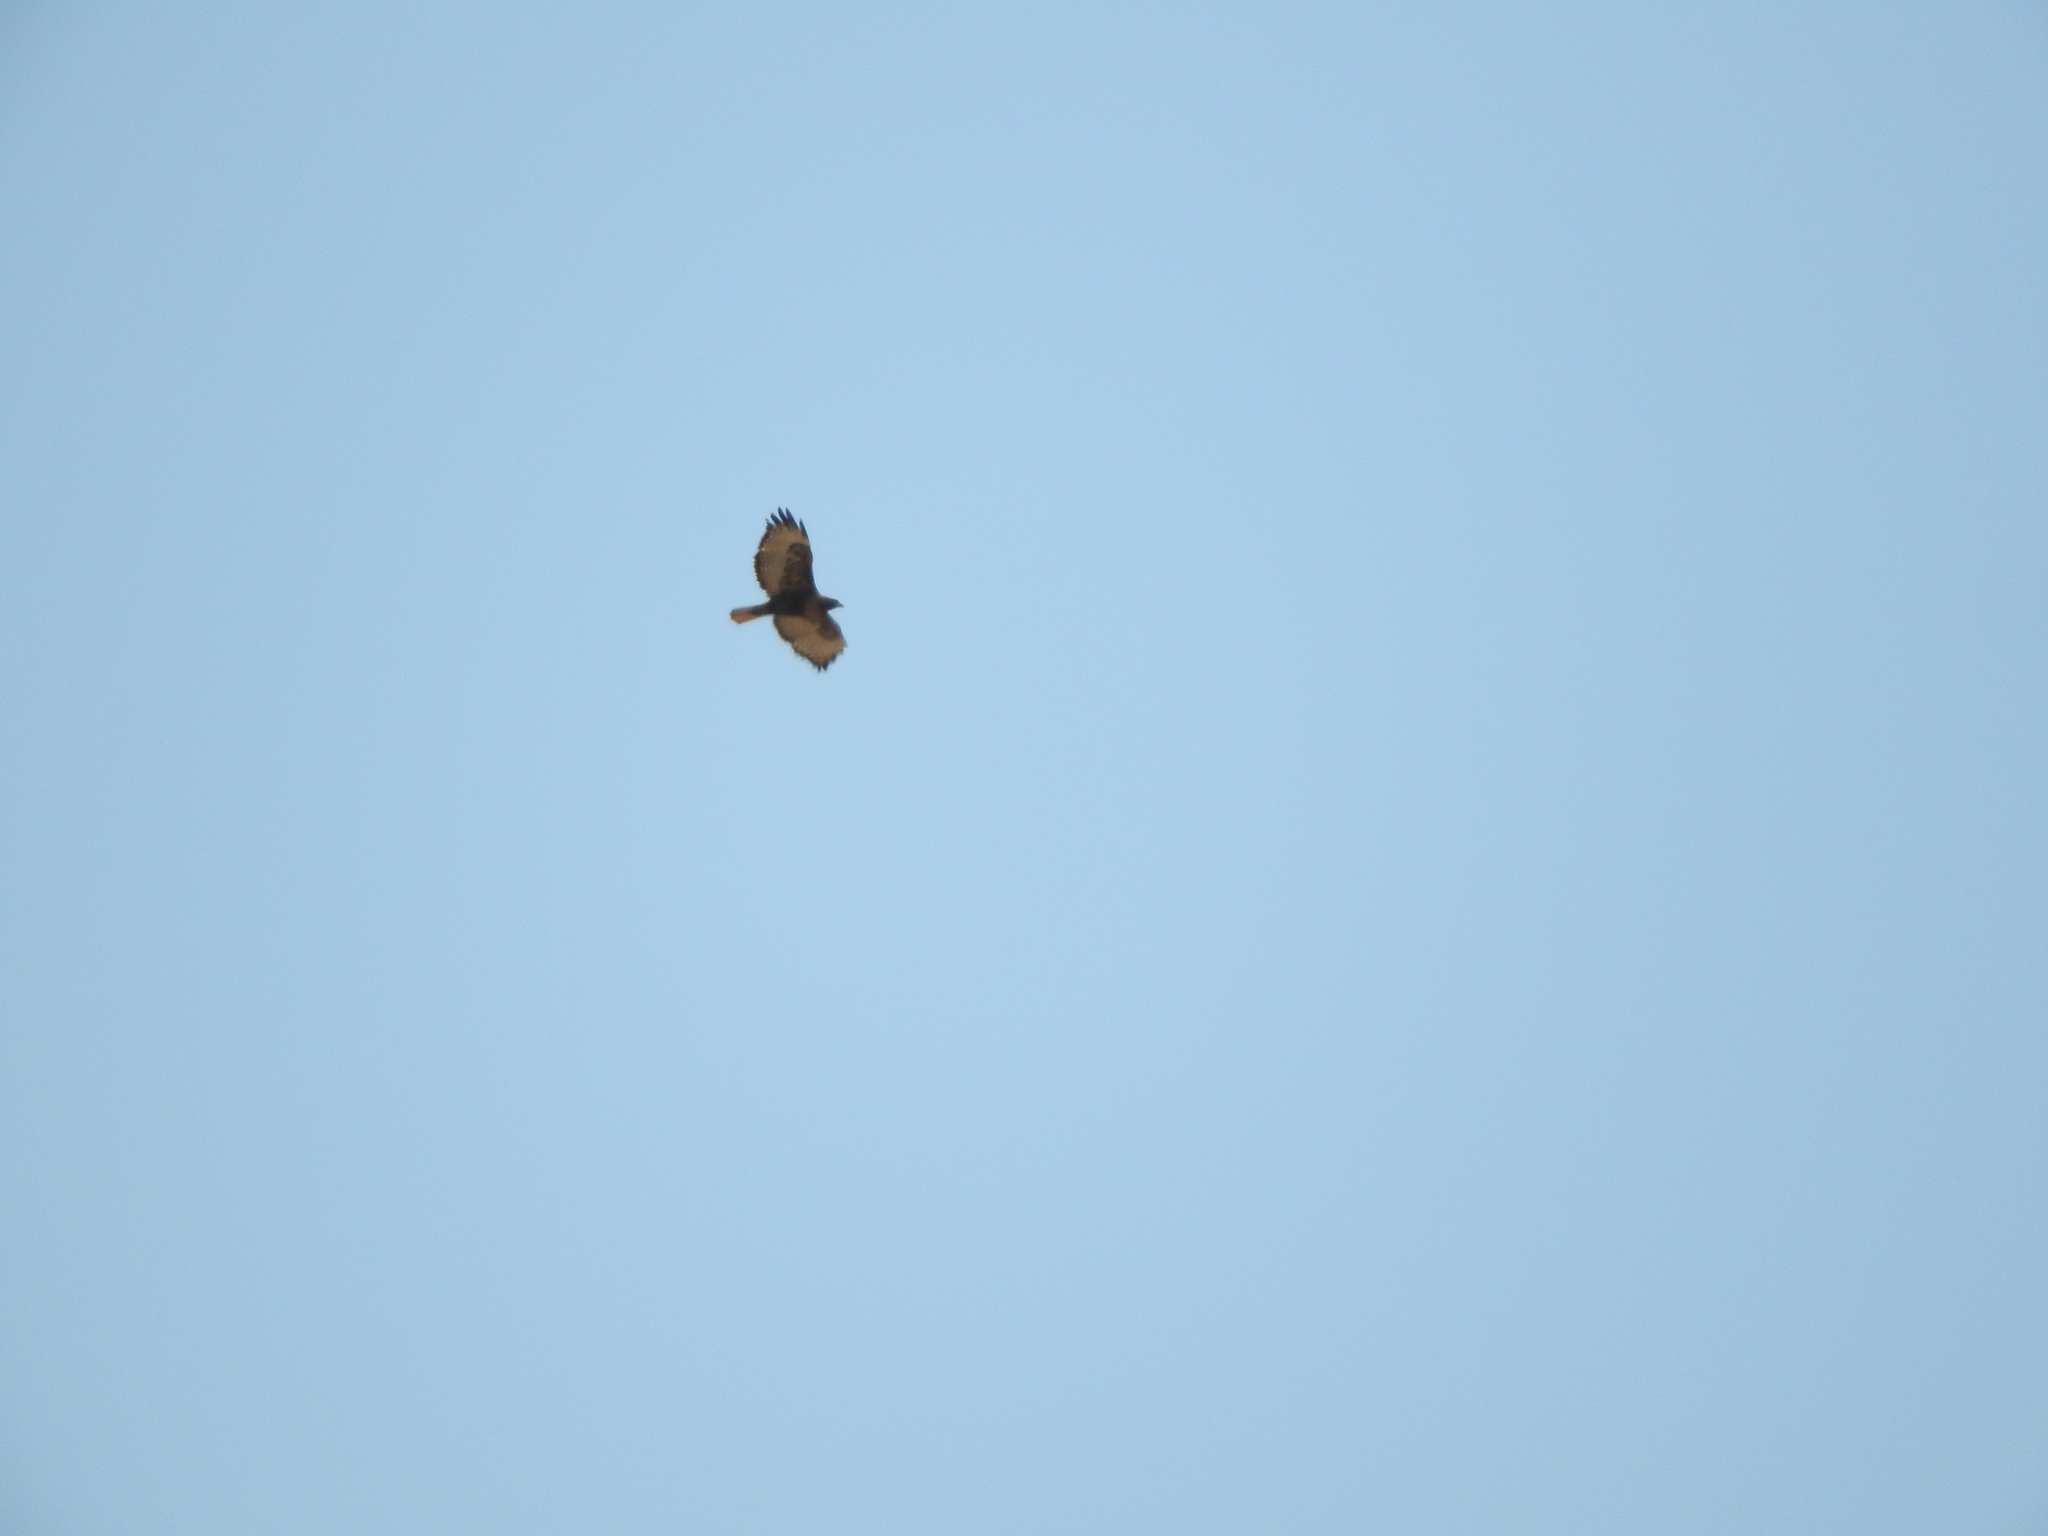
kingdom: Animalia
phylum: Chordata
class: Aves
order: Accipitriformes
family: Accipitridae
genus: Buteo
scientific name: Buteo jamaicensis
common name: Red-tailed hawk
